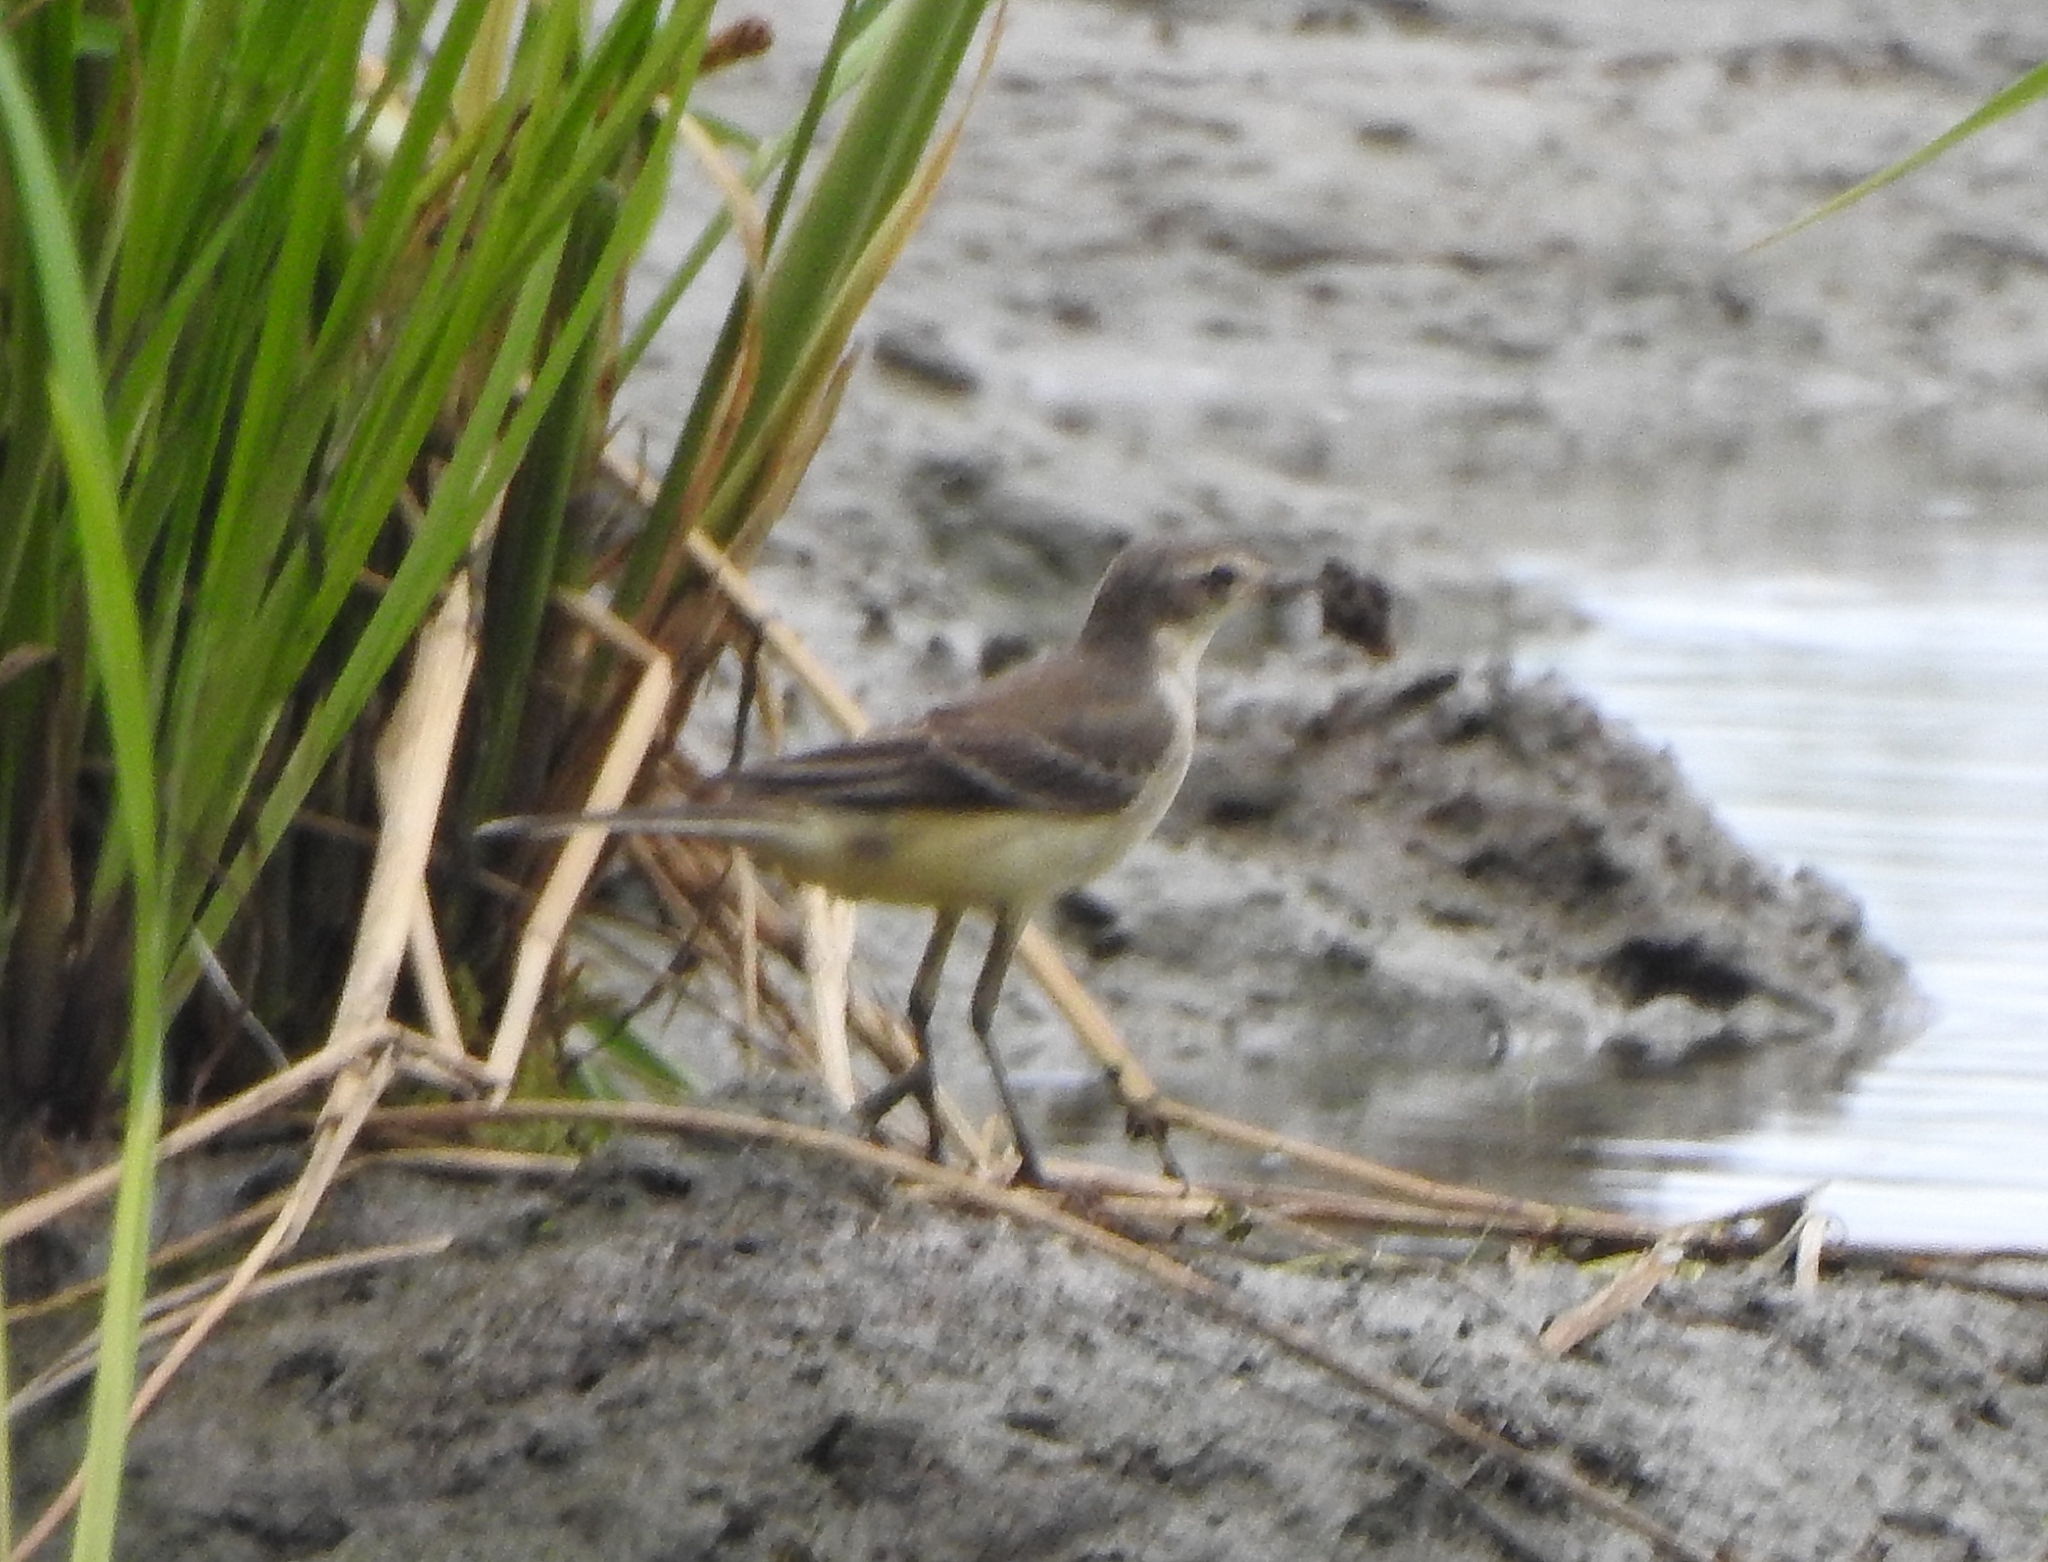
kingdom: Animalia
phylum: Chordata
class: Aves
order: Passeriformes
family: Motacillidae
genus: Motacilla
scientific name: Motacilla flava
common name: Western yellow wagtail
